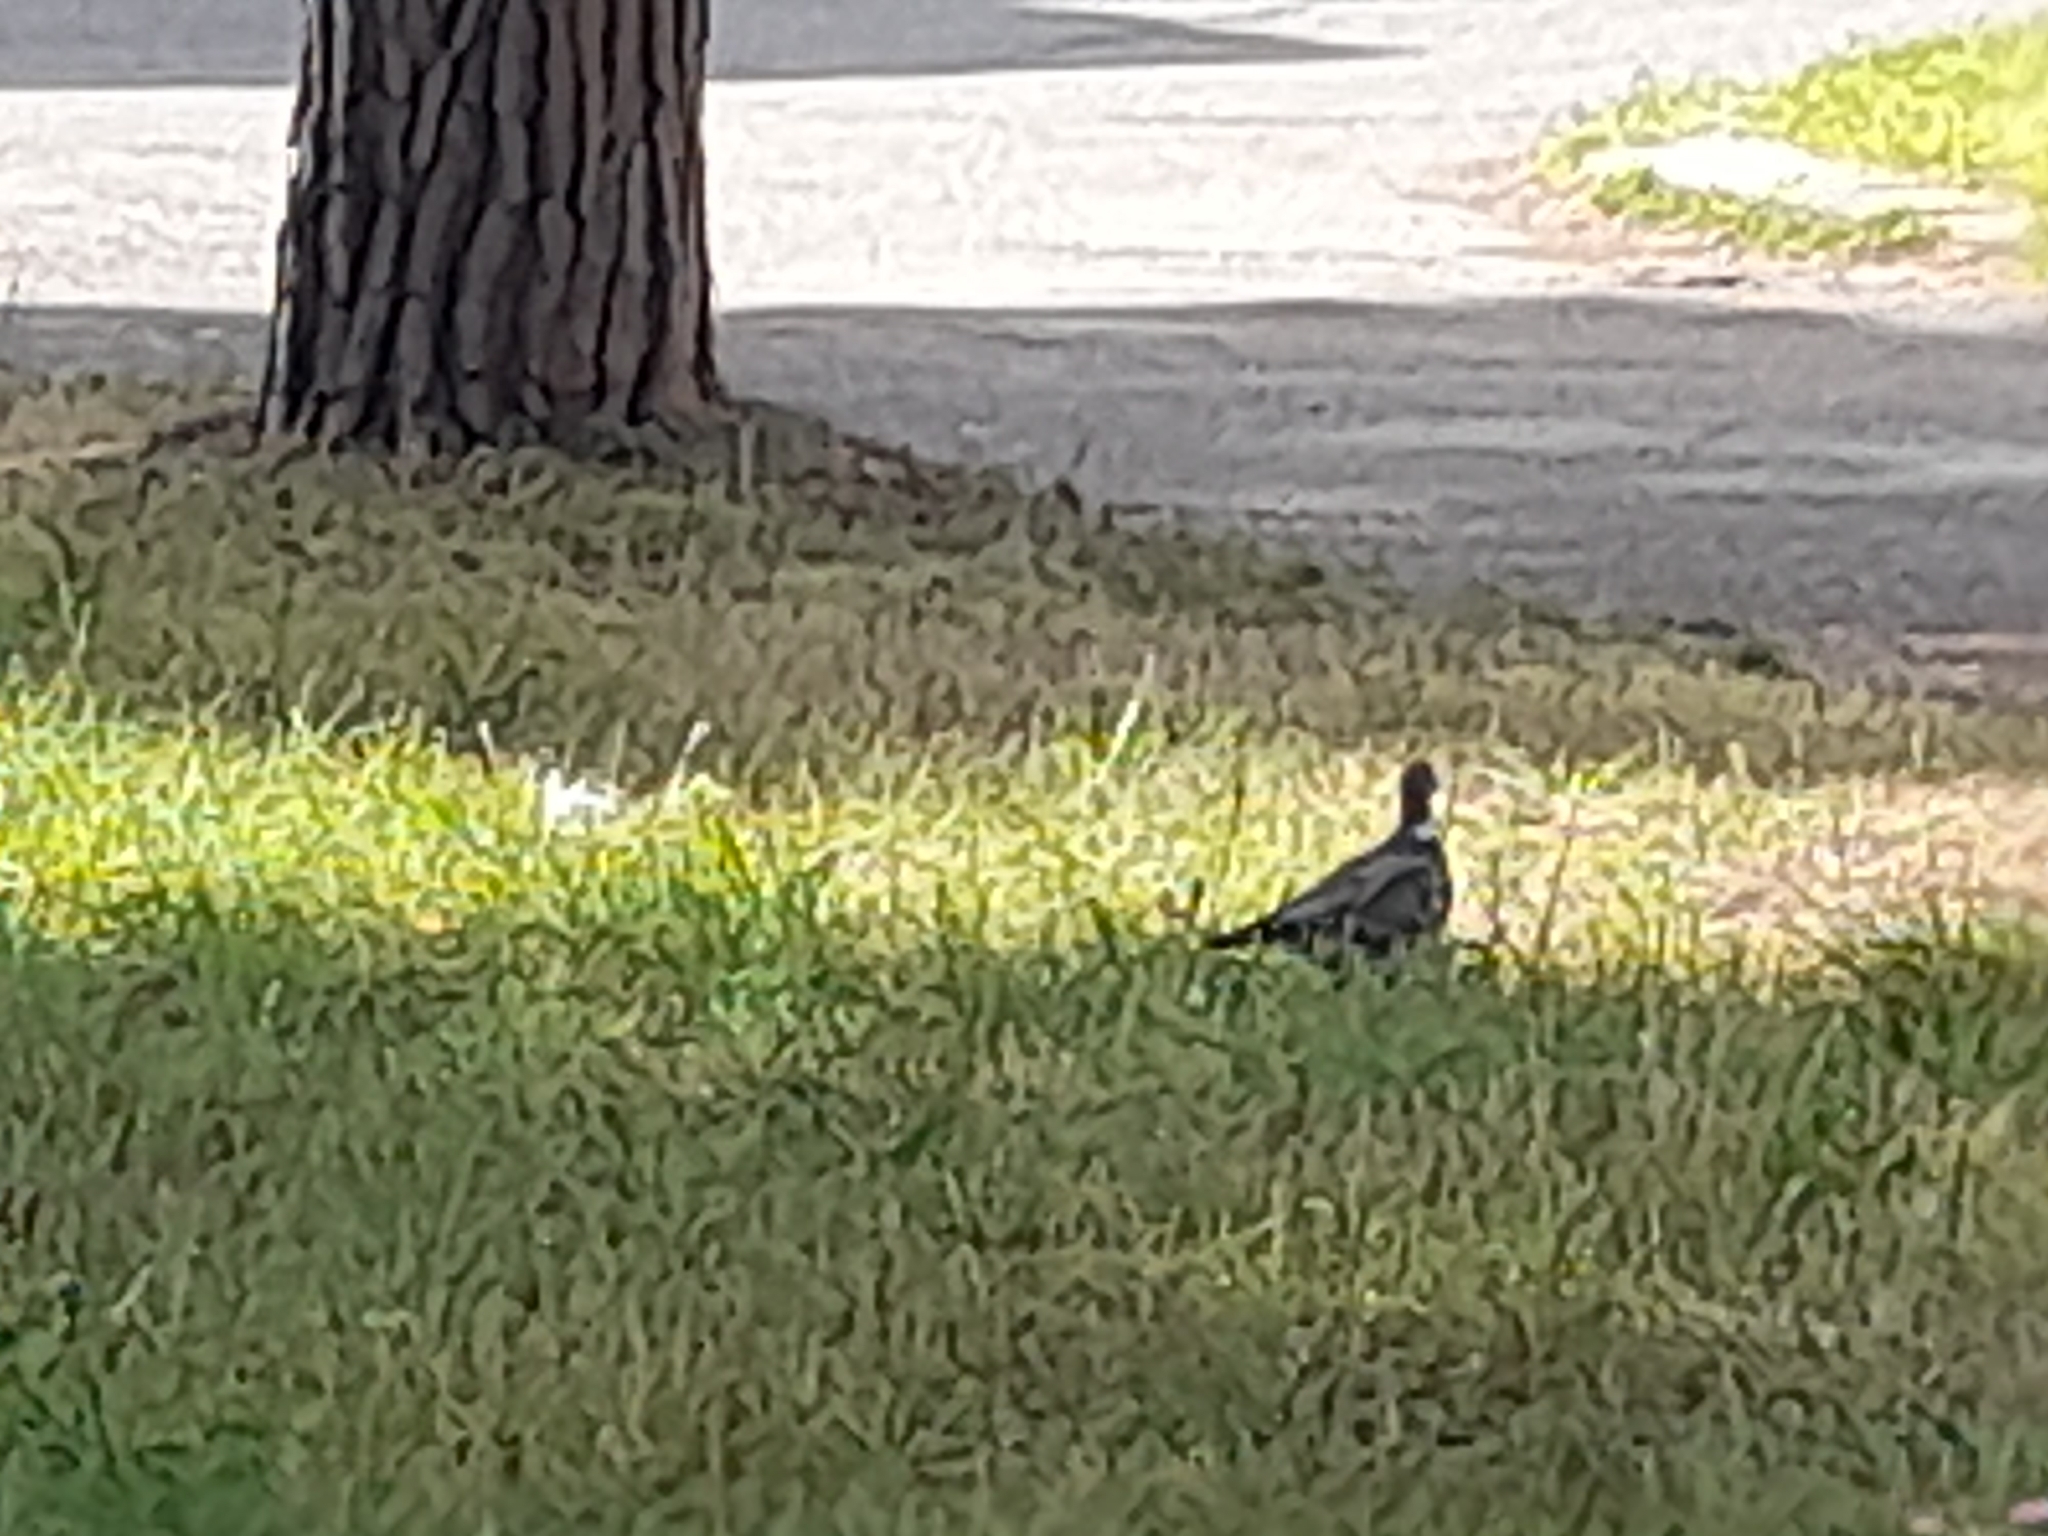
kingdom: Animalia
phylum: Chordata
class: Aves
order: Columbiformes
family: Columbidae
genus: Columba
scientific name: Columba palumbus
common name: Common wood pigeon
